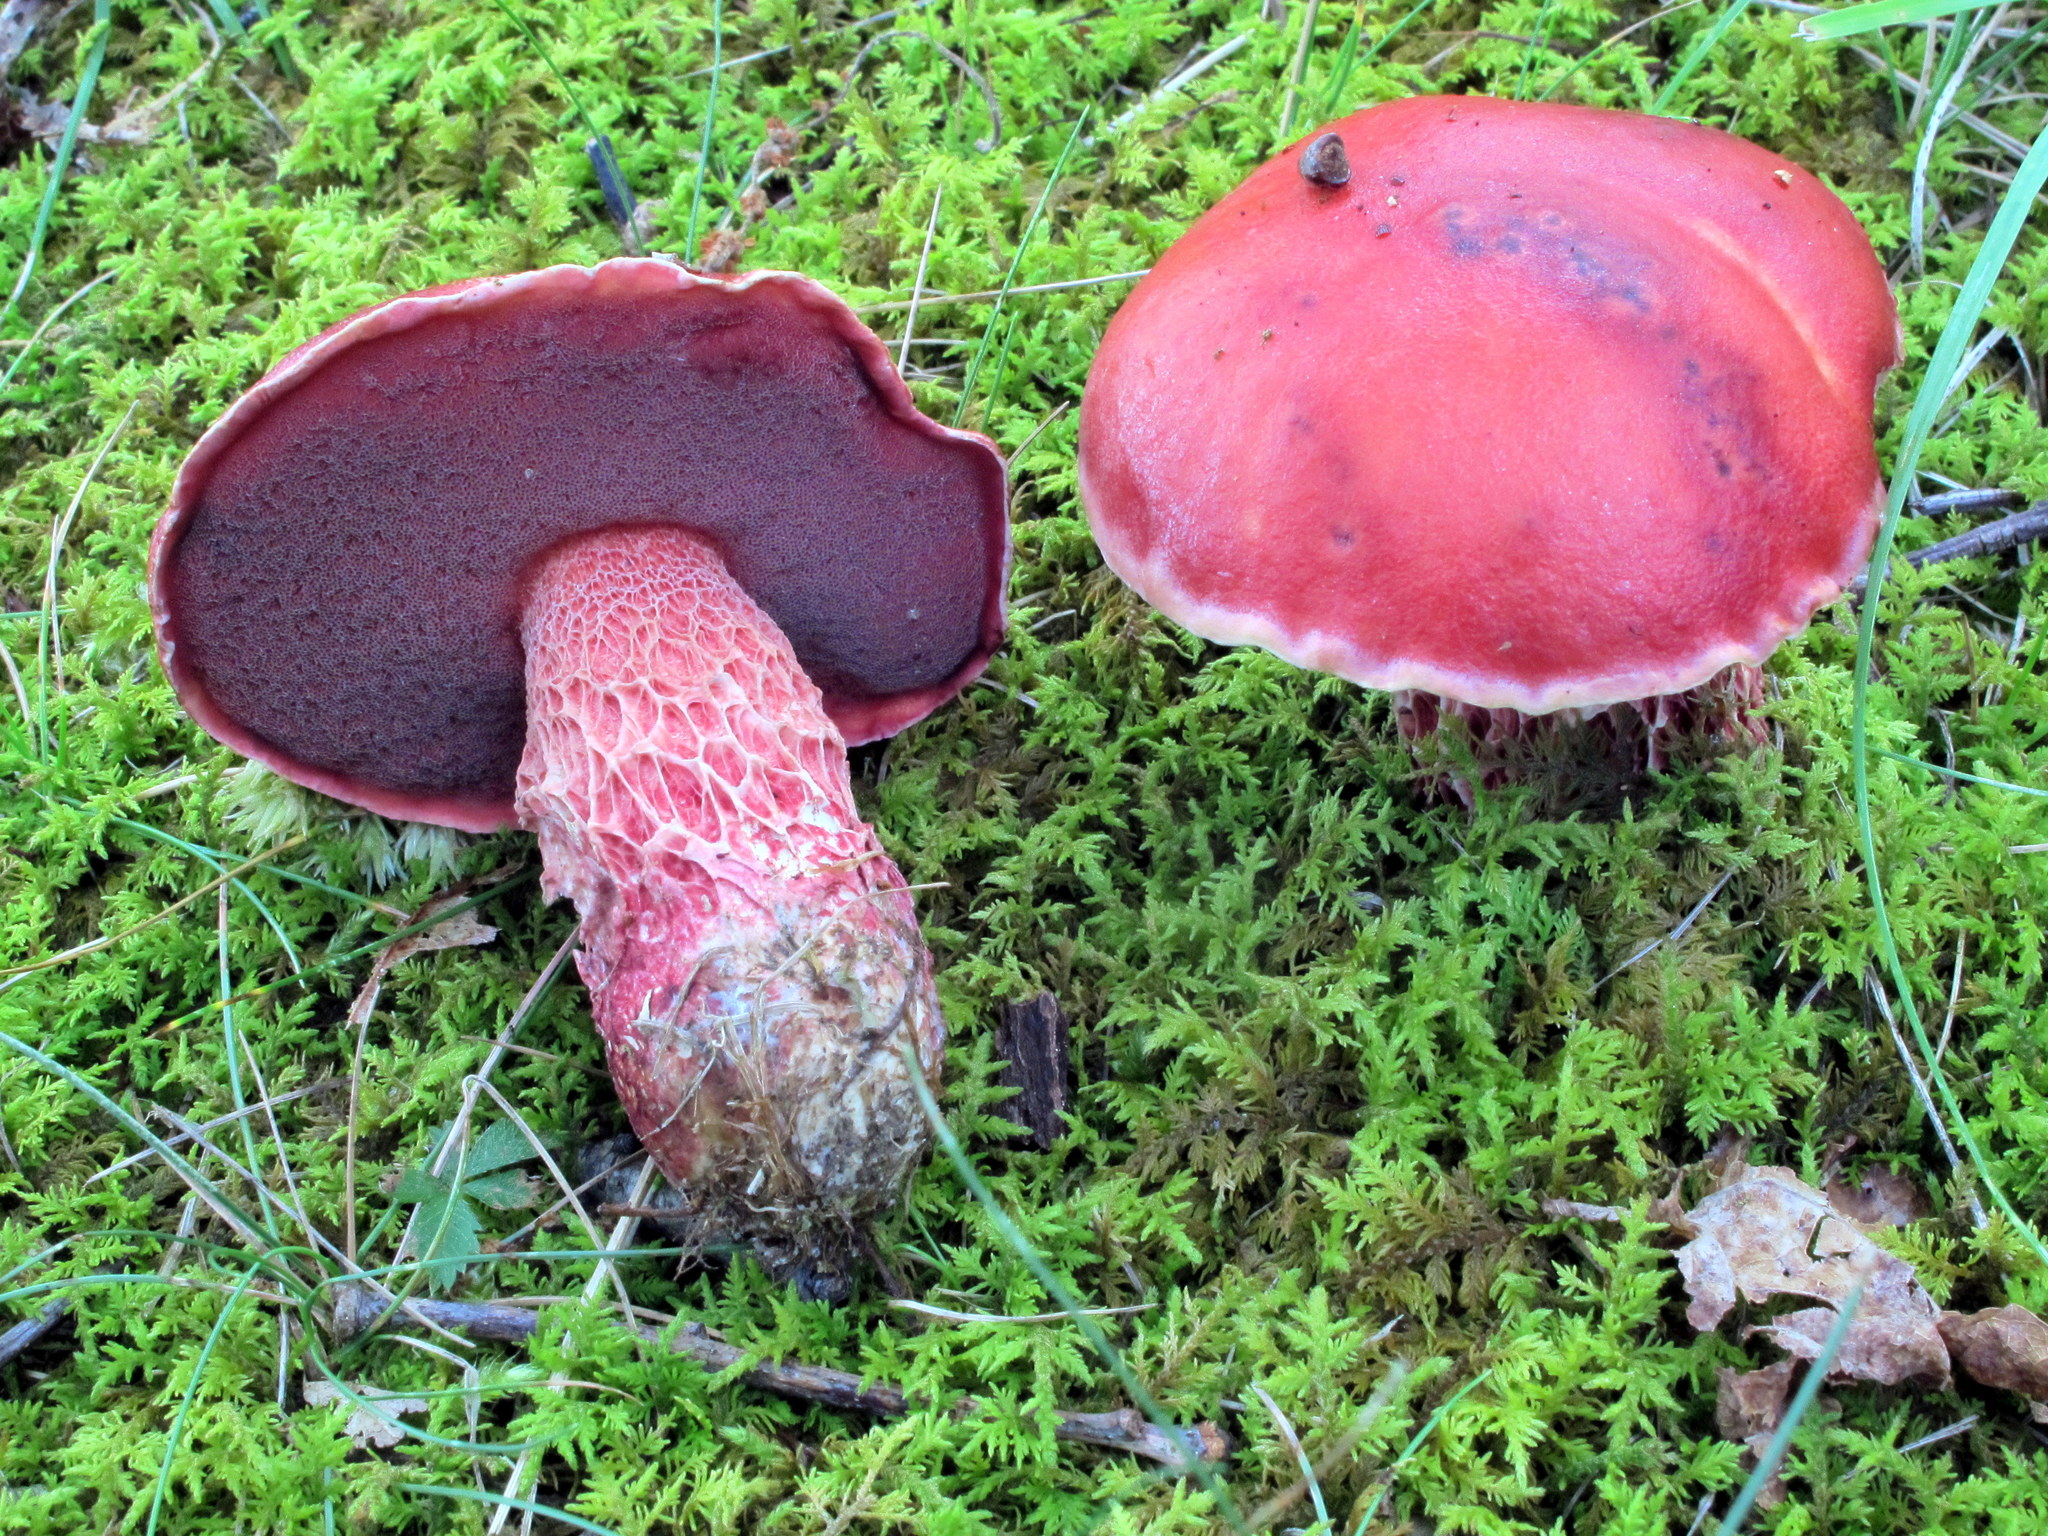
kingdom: Fungi
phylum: Basidiomycota
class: Agaricomycetes
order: Boletales
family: Boletaceae
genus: Butyriboletus
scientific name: Butyriboletus frostii
